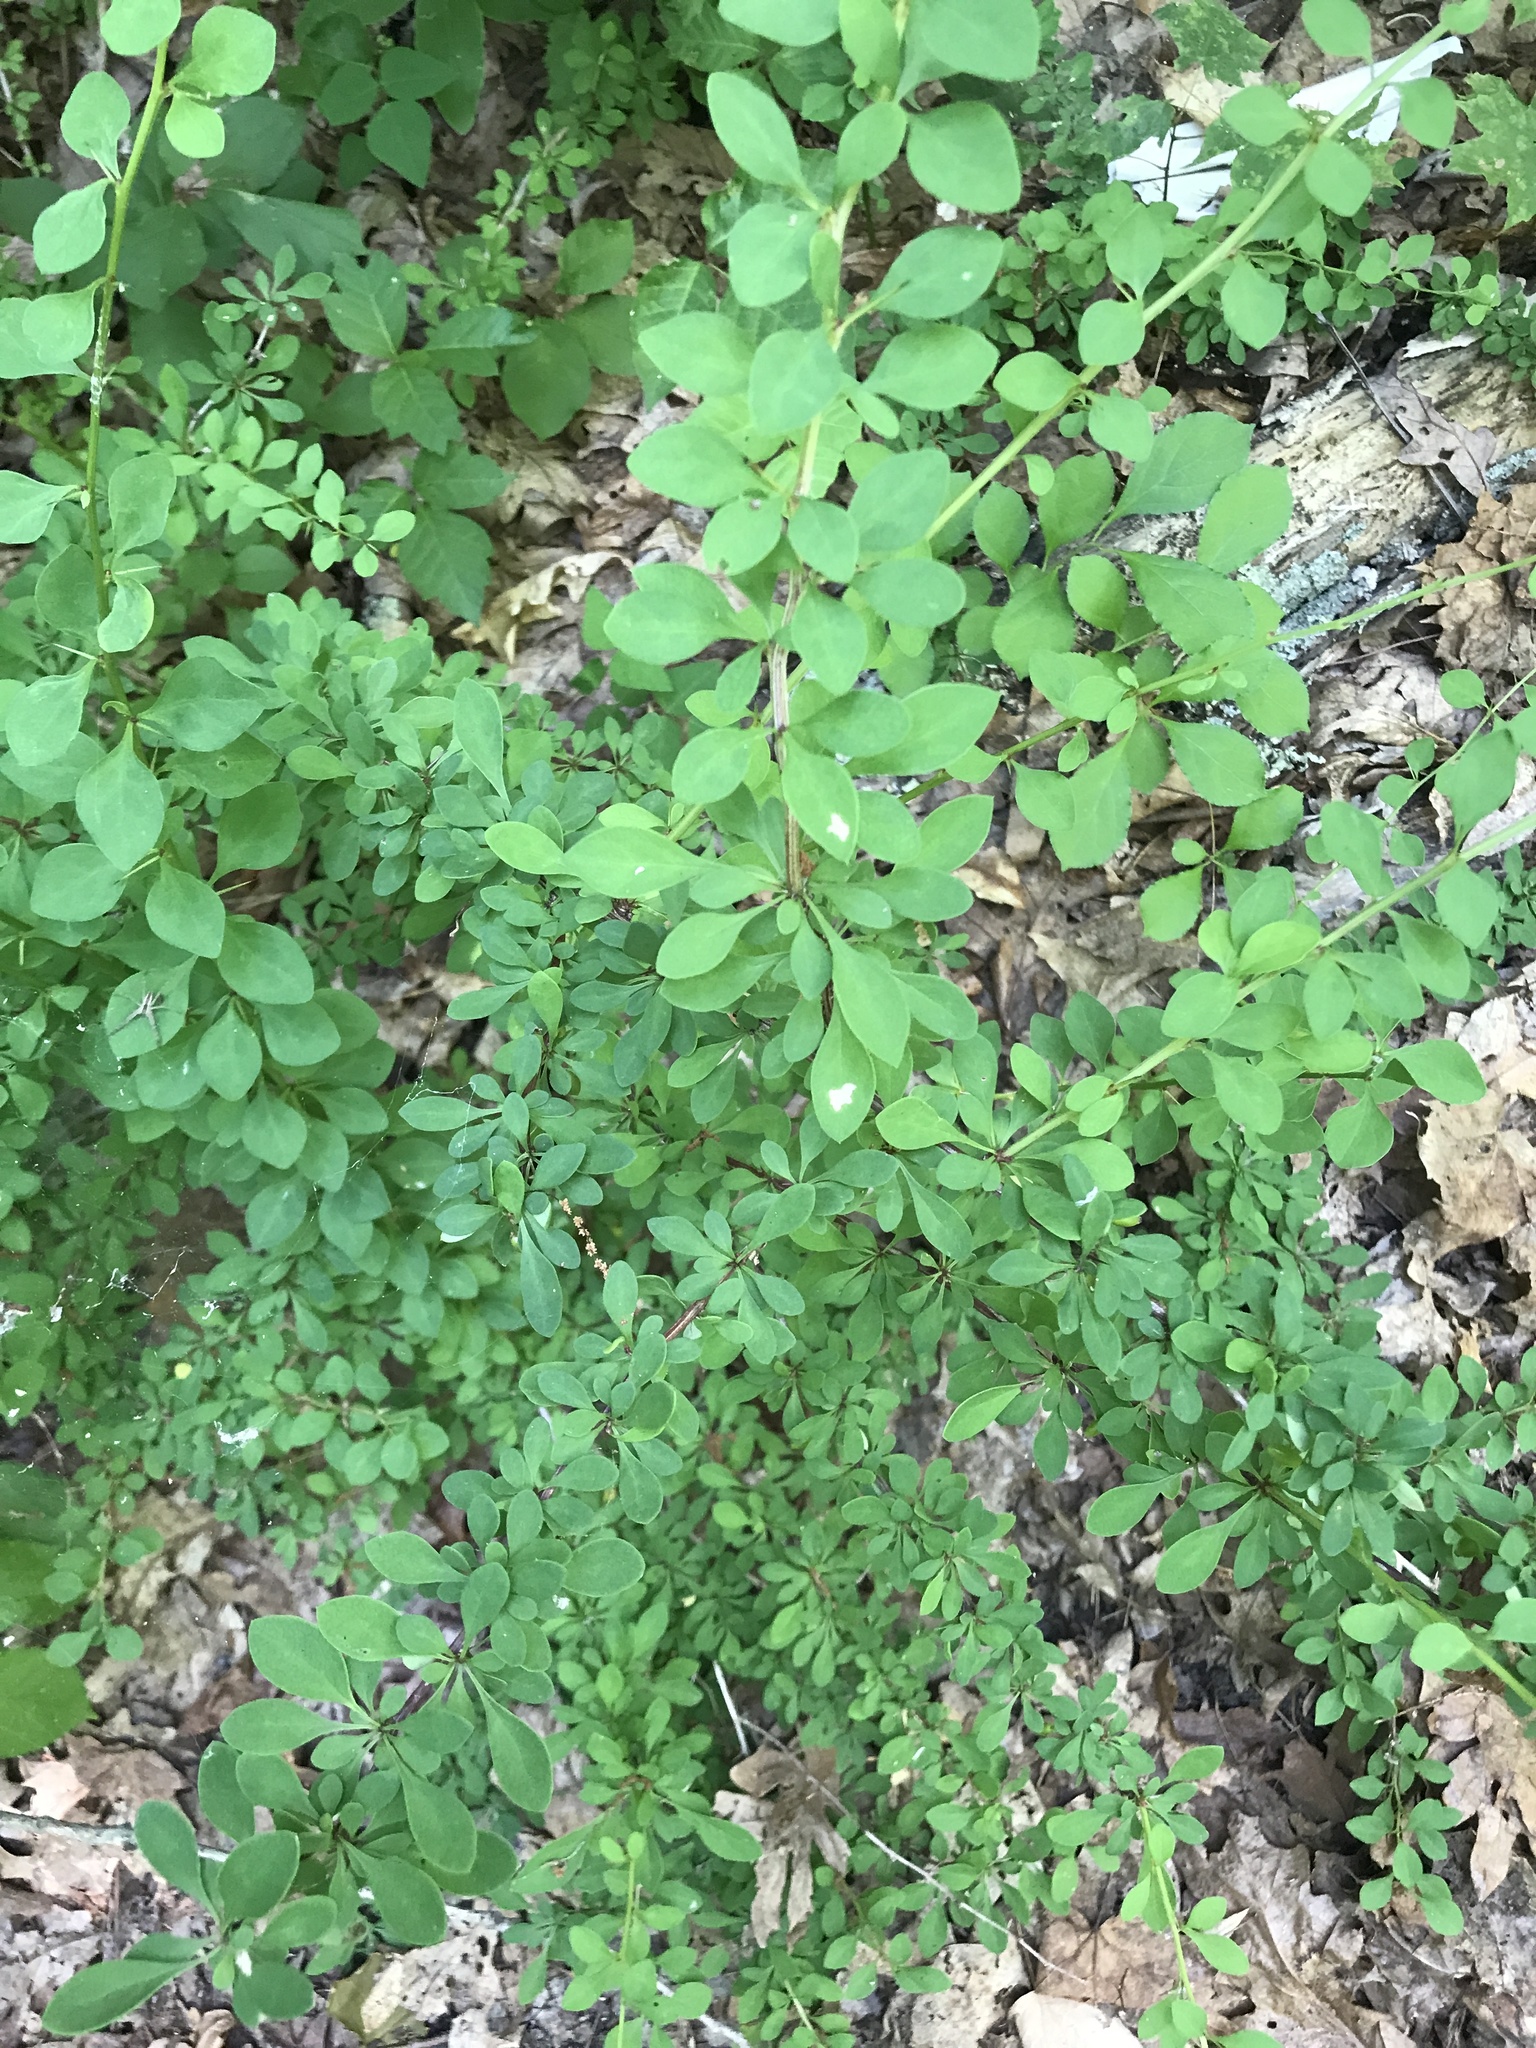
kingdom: Plantae
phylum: Tracheophyta
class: Magnoliopsida
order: Ranunculales
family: Berberidaceae
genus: Berberis
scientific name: Berberis thunbergii
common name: Japanese barberry
